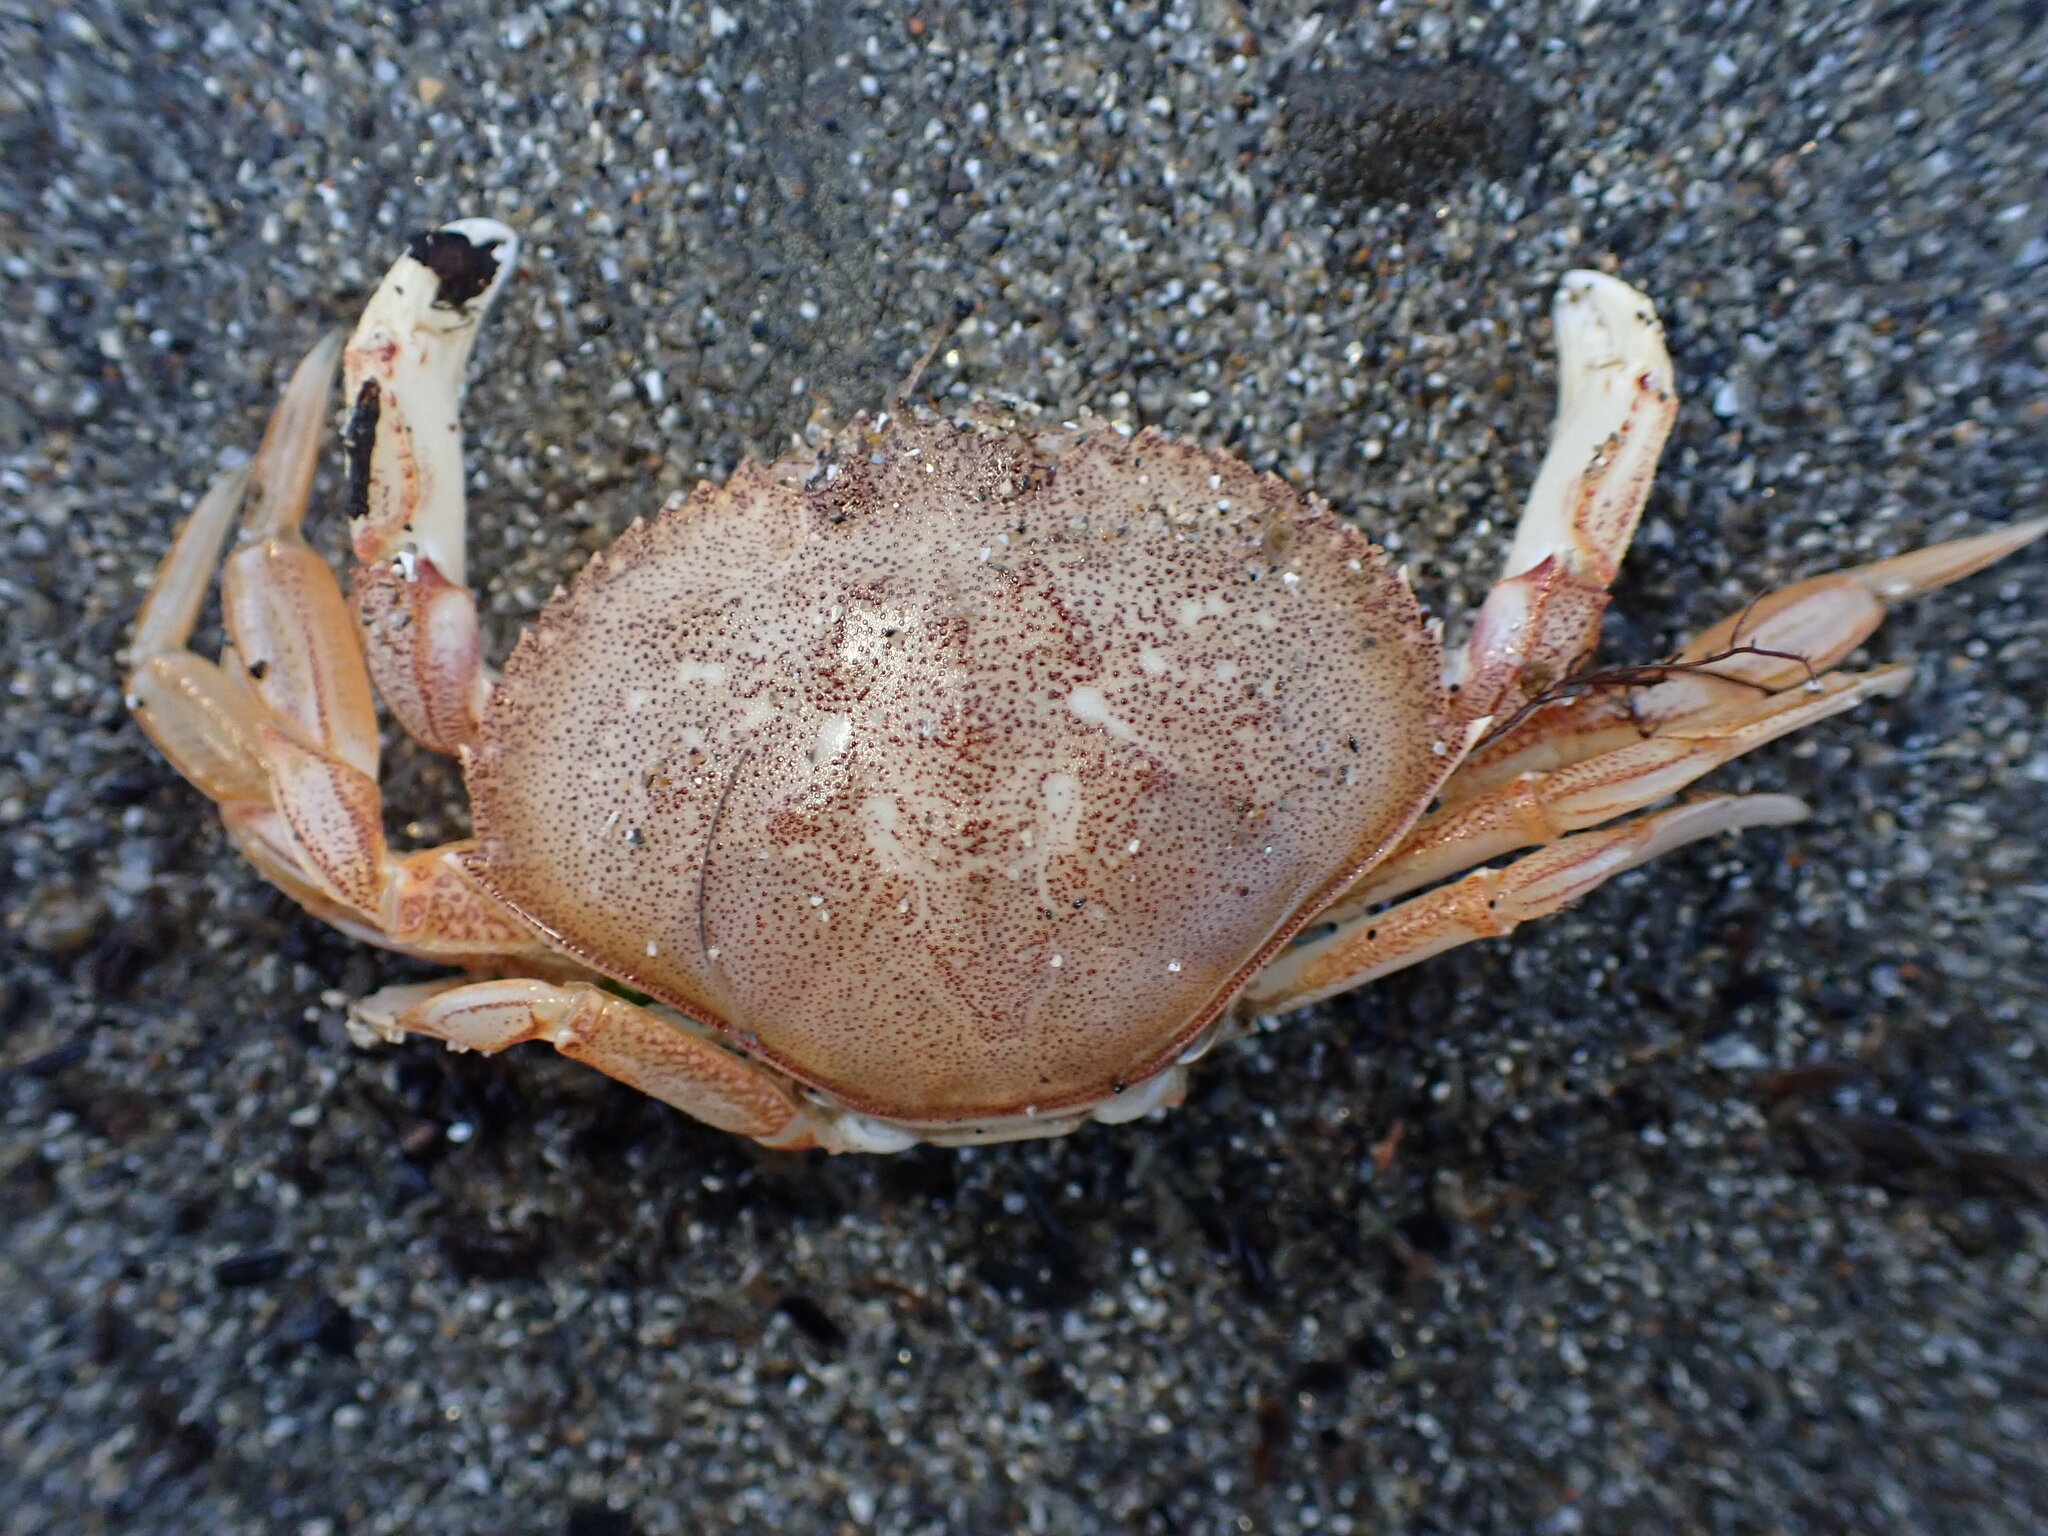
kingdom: Animalia
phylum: Arthropoda
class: Malacostraca
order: Decapoda
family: Cancridae
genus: Metacarcinus
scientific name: Metacarcinus magister
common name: Californian crab
